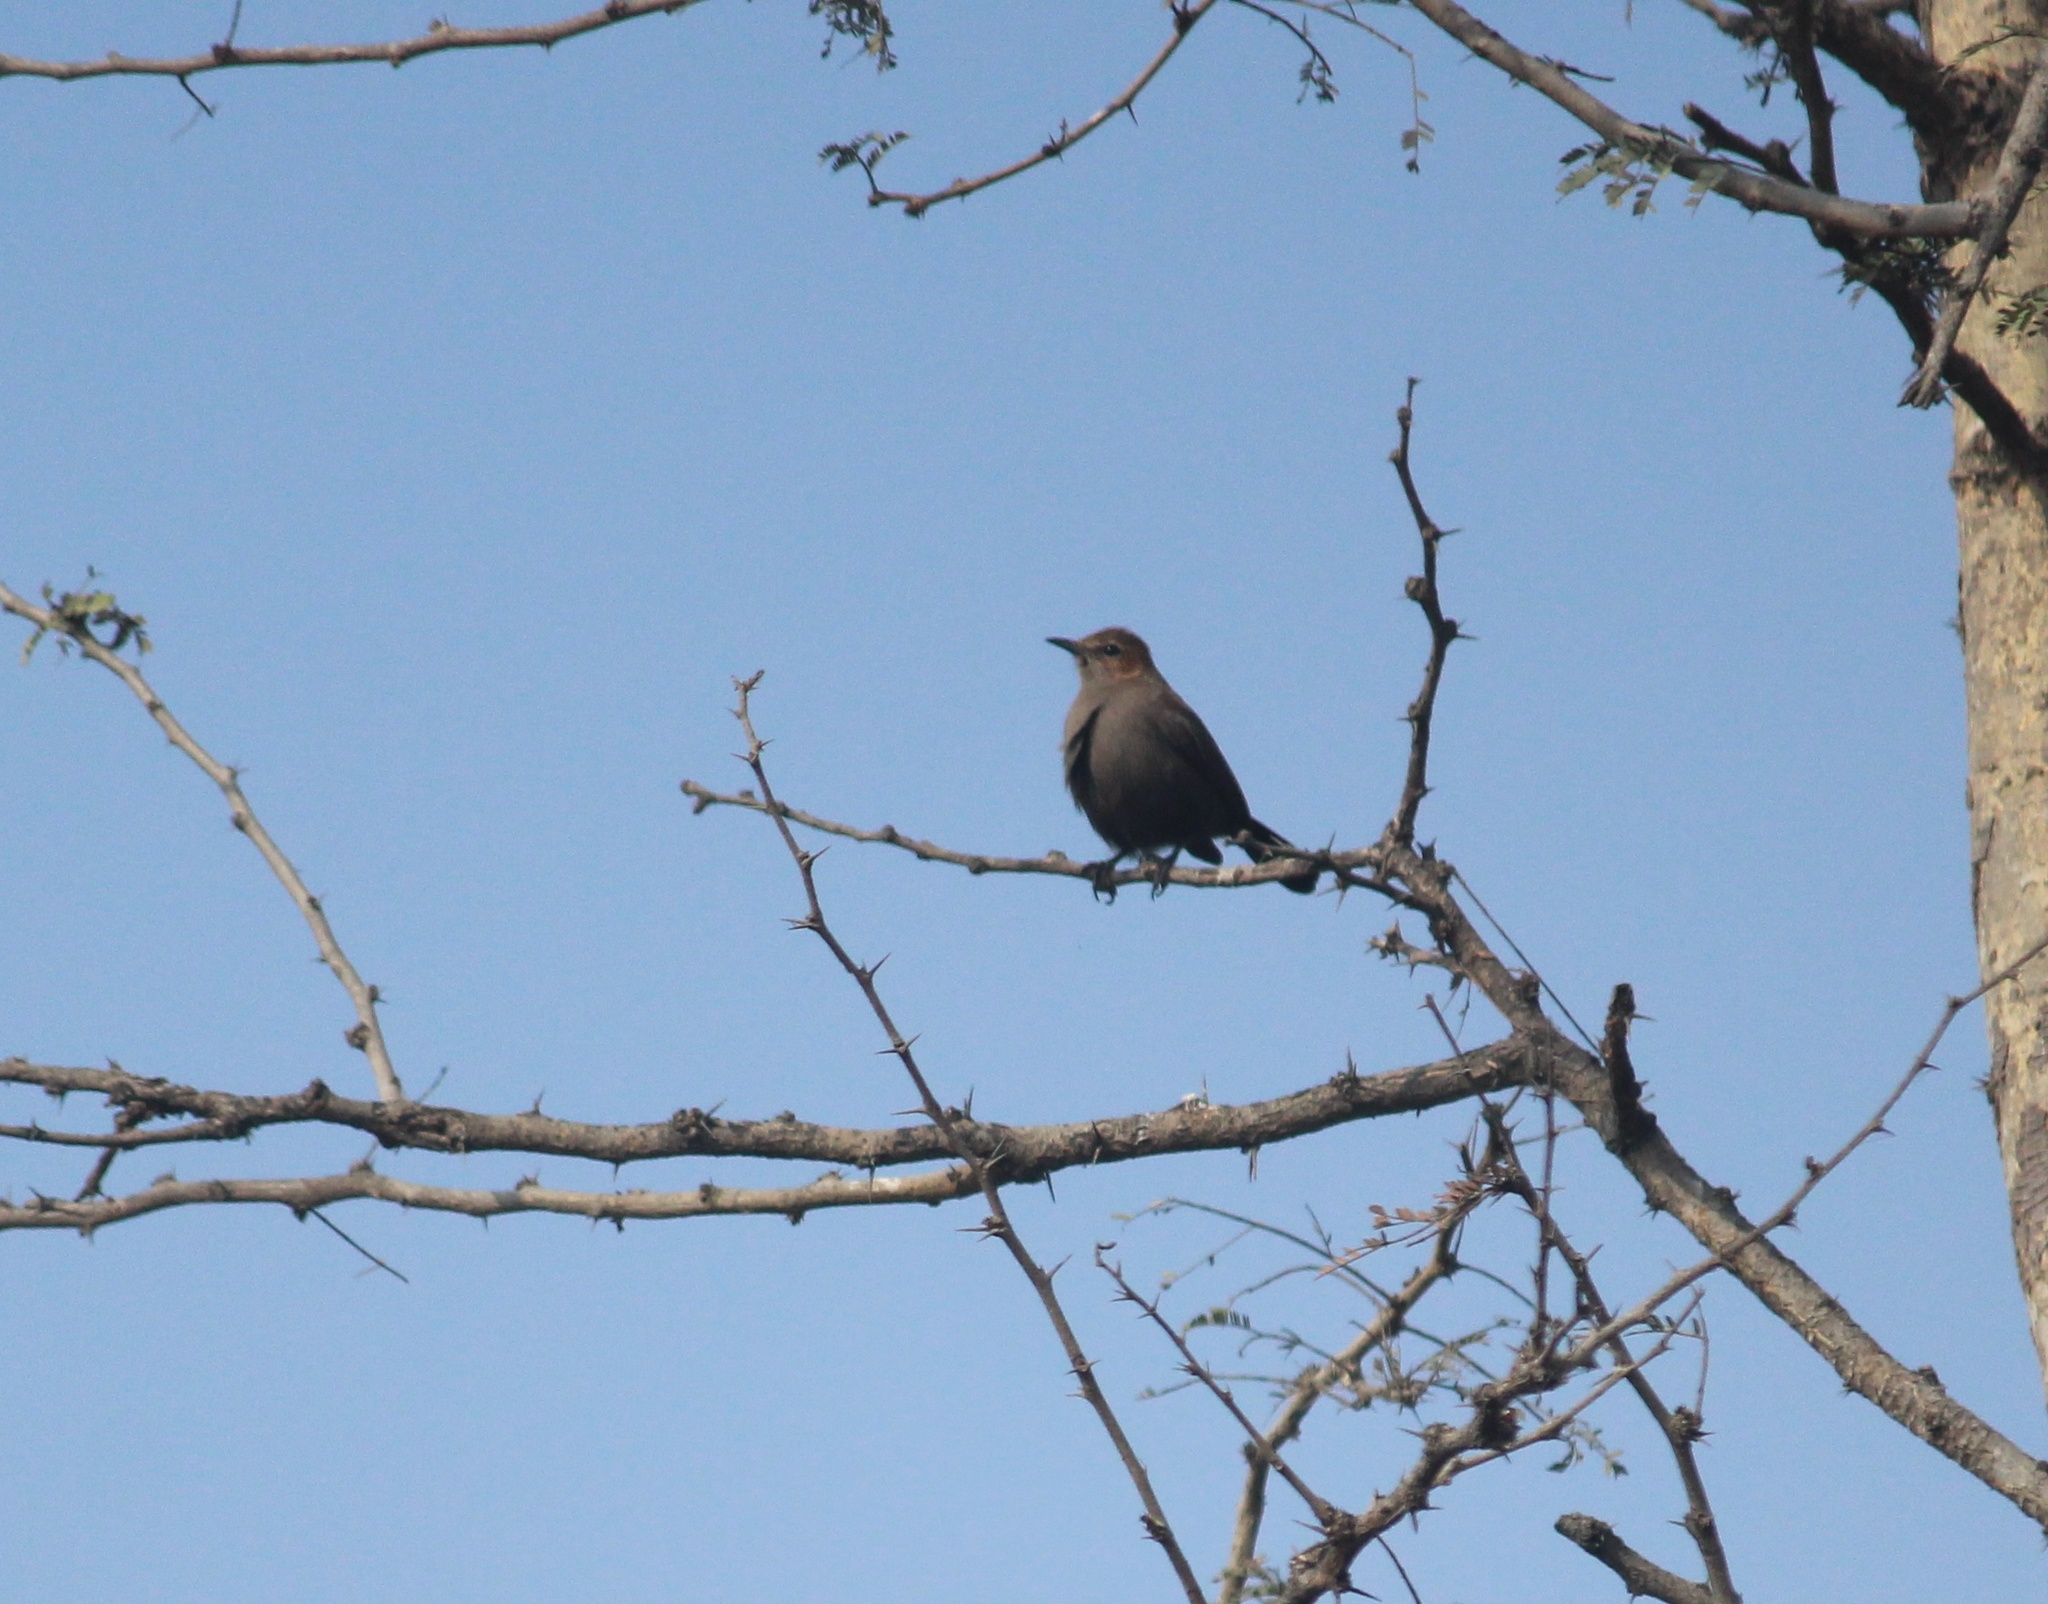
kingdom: Animalia
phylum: Chordata
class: Aves
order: Passeriformes
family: Muscicapidae
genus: Saxicoloides
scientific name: Saxicoloides fulicatus
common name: Indian robin
